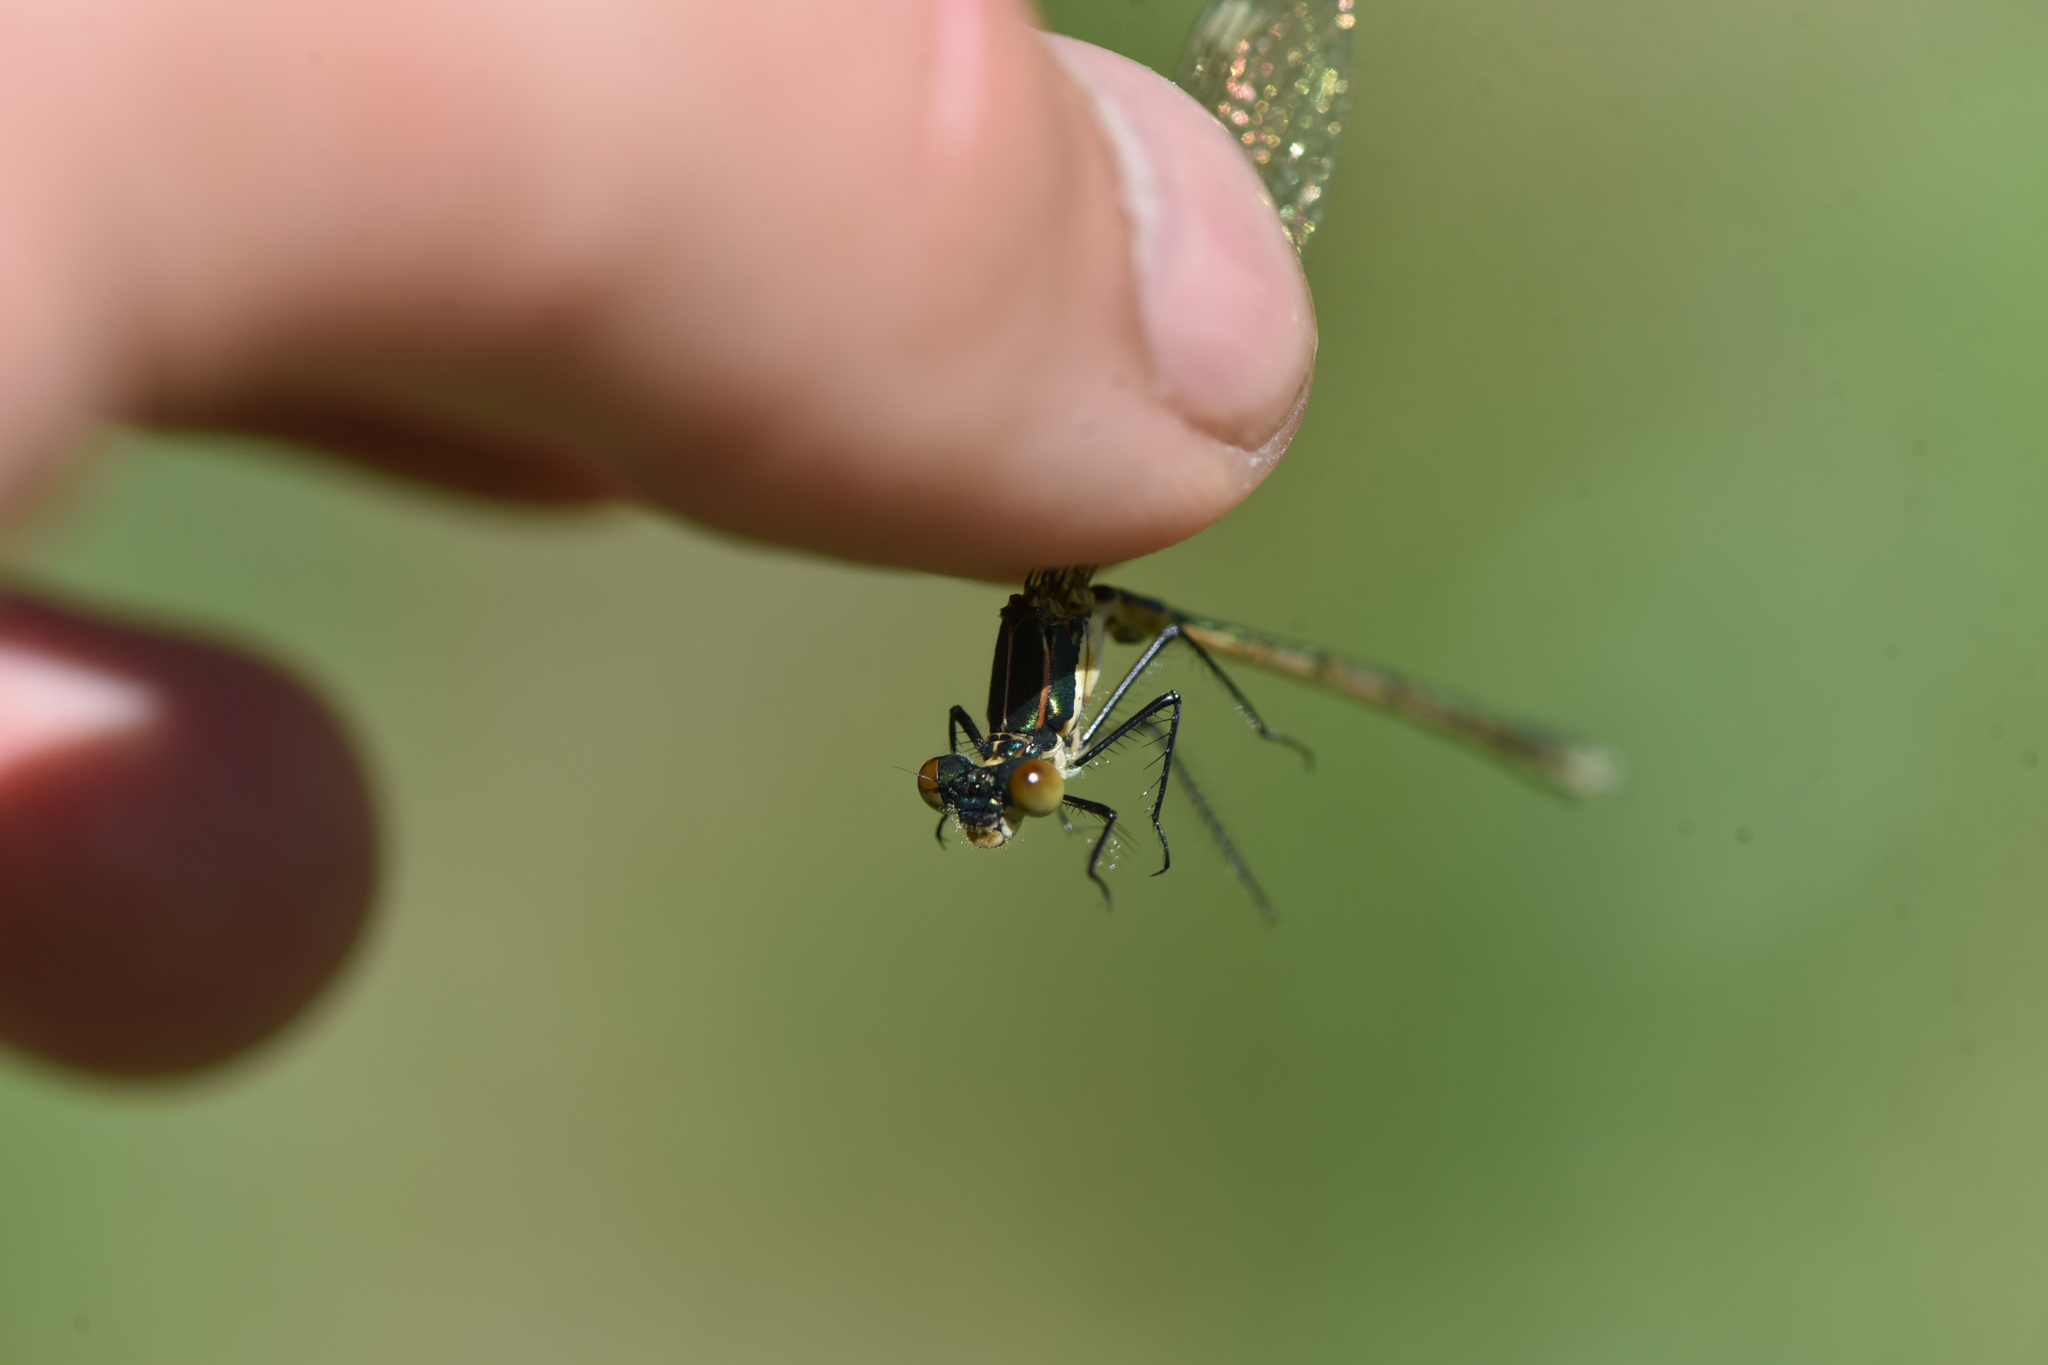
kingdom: Animalia
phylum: Arthropoda
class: Insecta
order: Odonata
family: Lestidae
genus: Lestes
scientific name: Lestes dryas
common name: Scarce emerald damselfly
